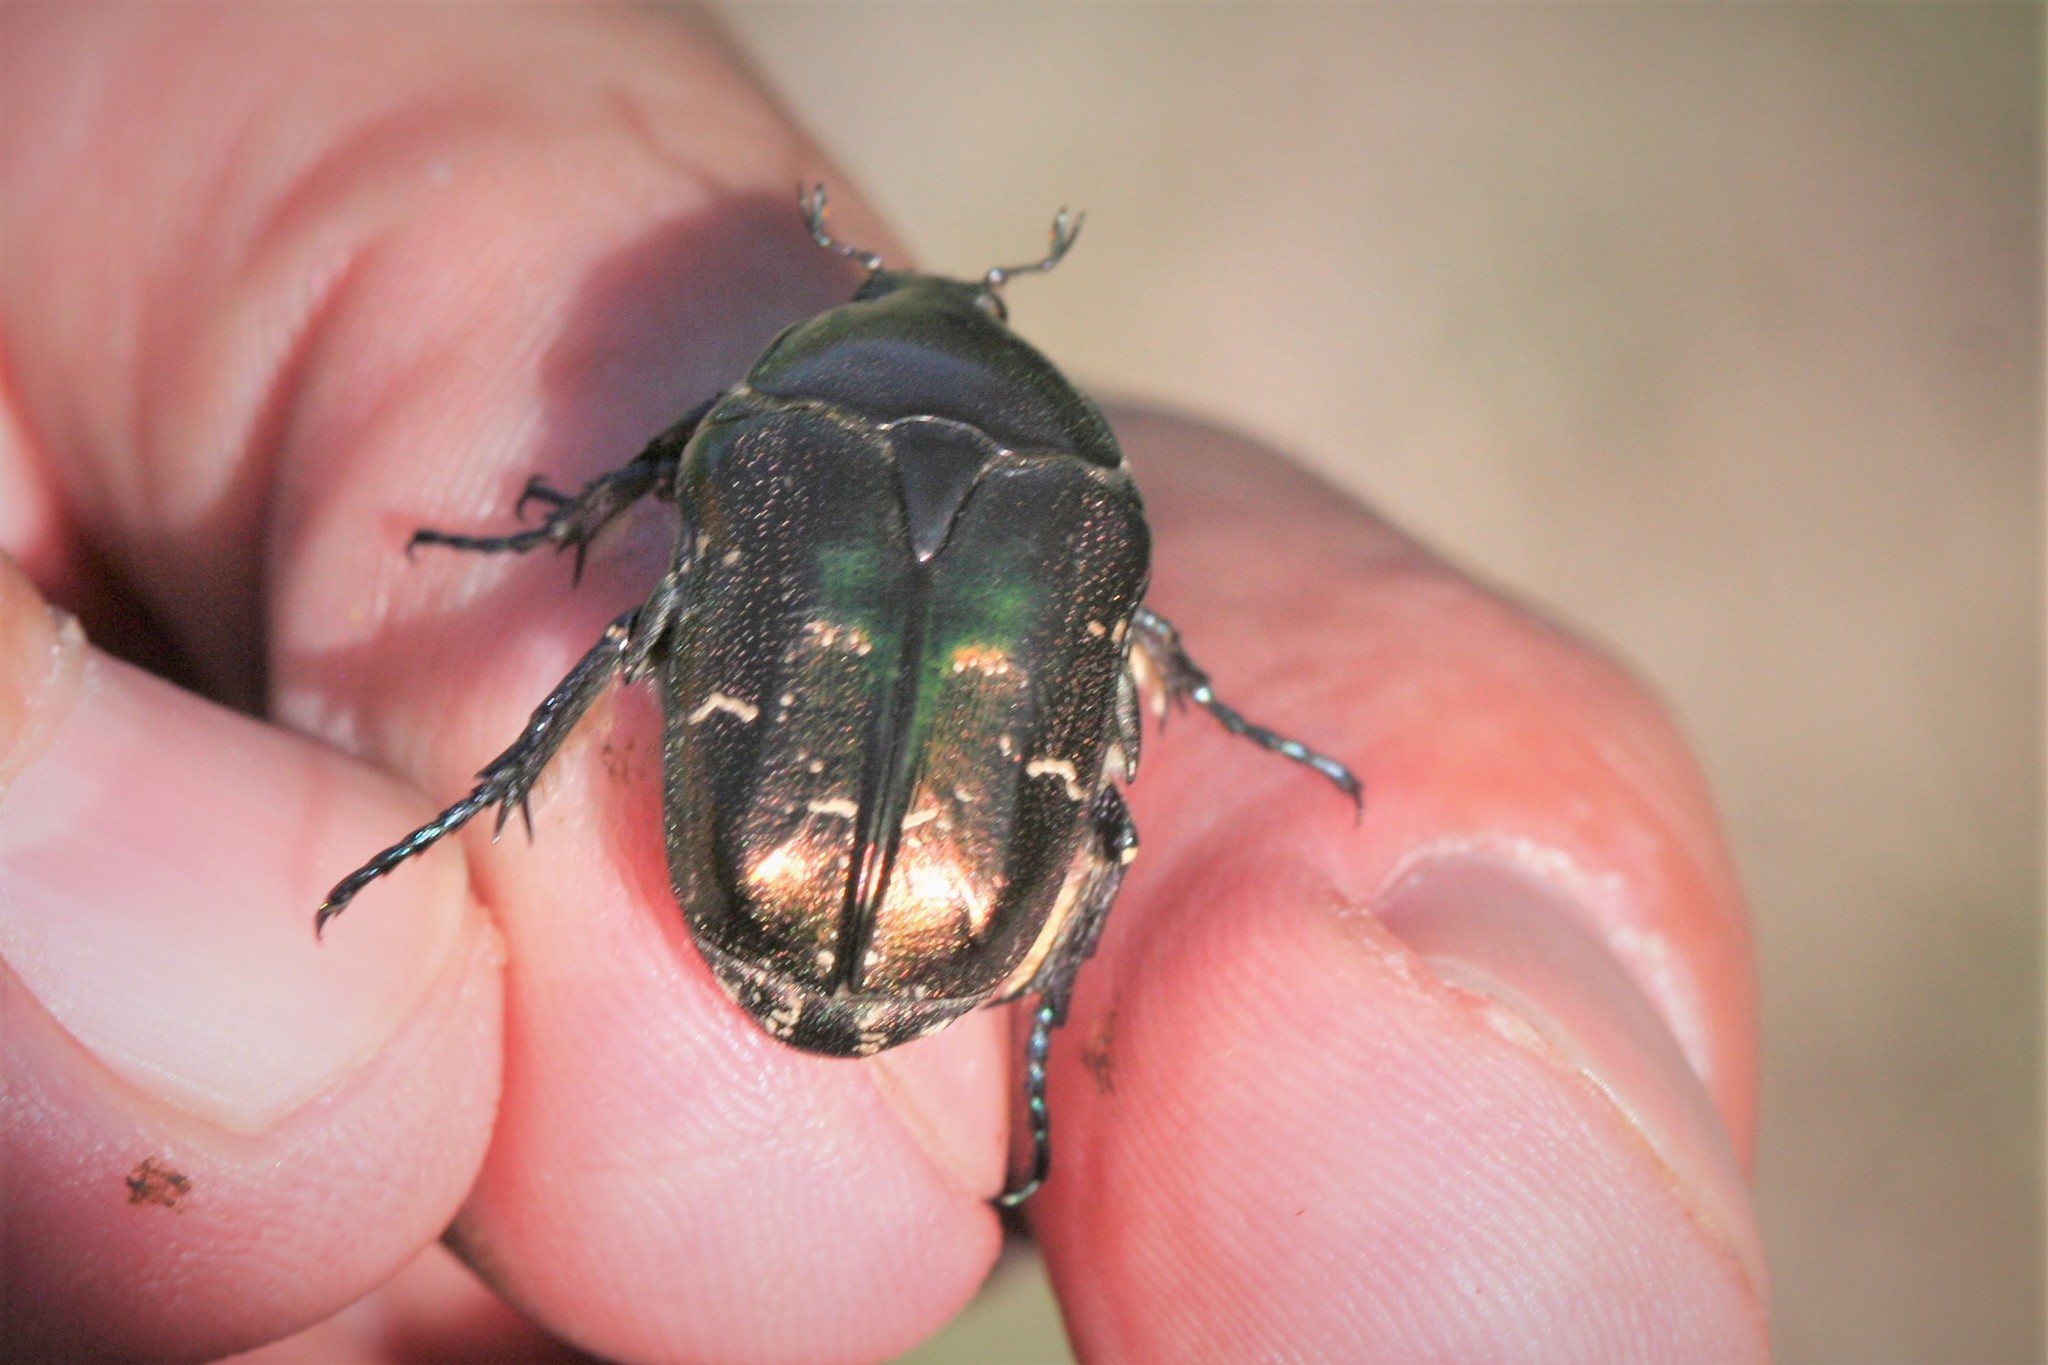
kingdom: Animalia
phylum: Arthropoda
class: Insecta
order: Coleoptera
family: Scarabaeidae
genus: Protaetia
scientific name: Protaetia cuprea
